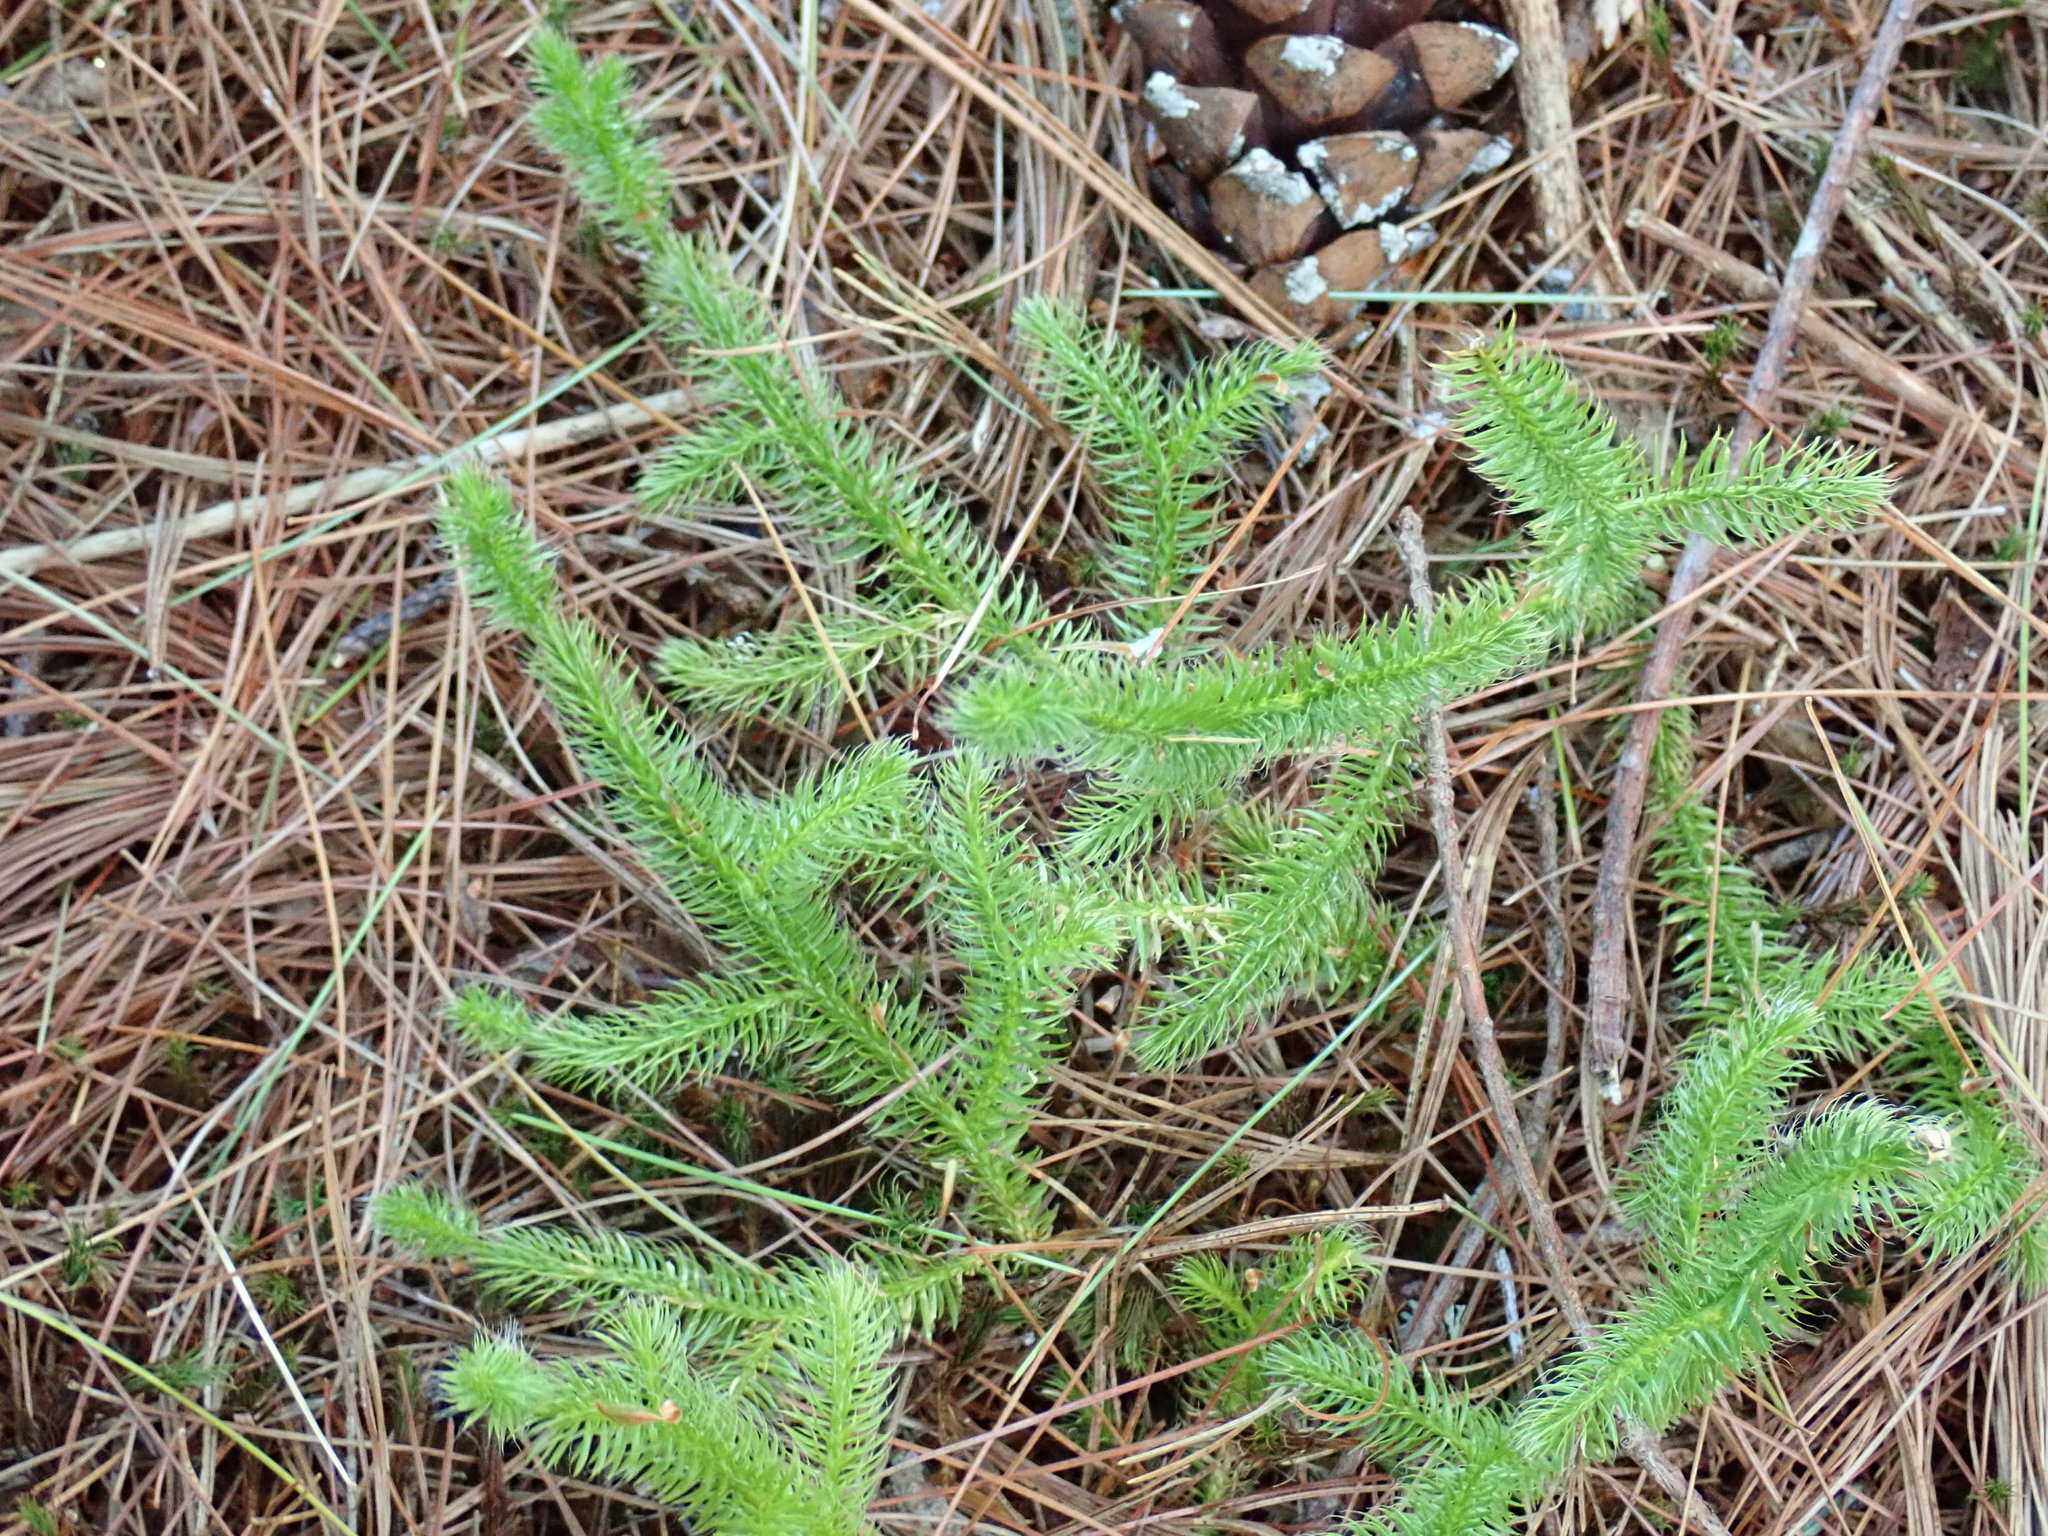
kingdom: Plantae
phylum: Tracheophyta
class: Lycopodiopsida
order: Lycopodiales
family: Lycopodiaceae
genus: Lycopodium
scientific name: Lycopodium clavatum
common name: Stag's-horn clubmoss
